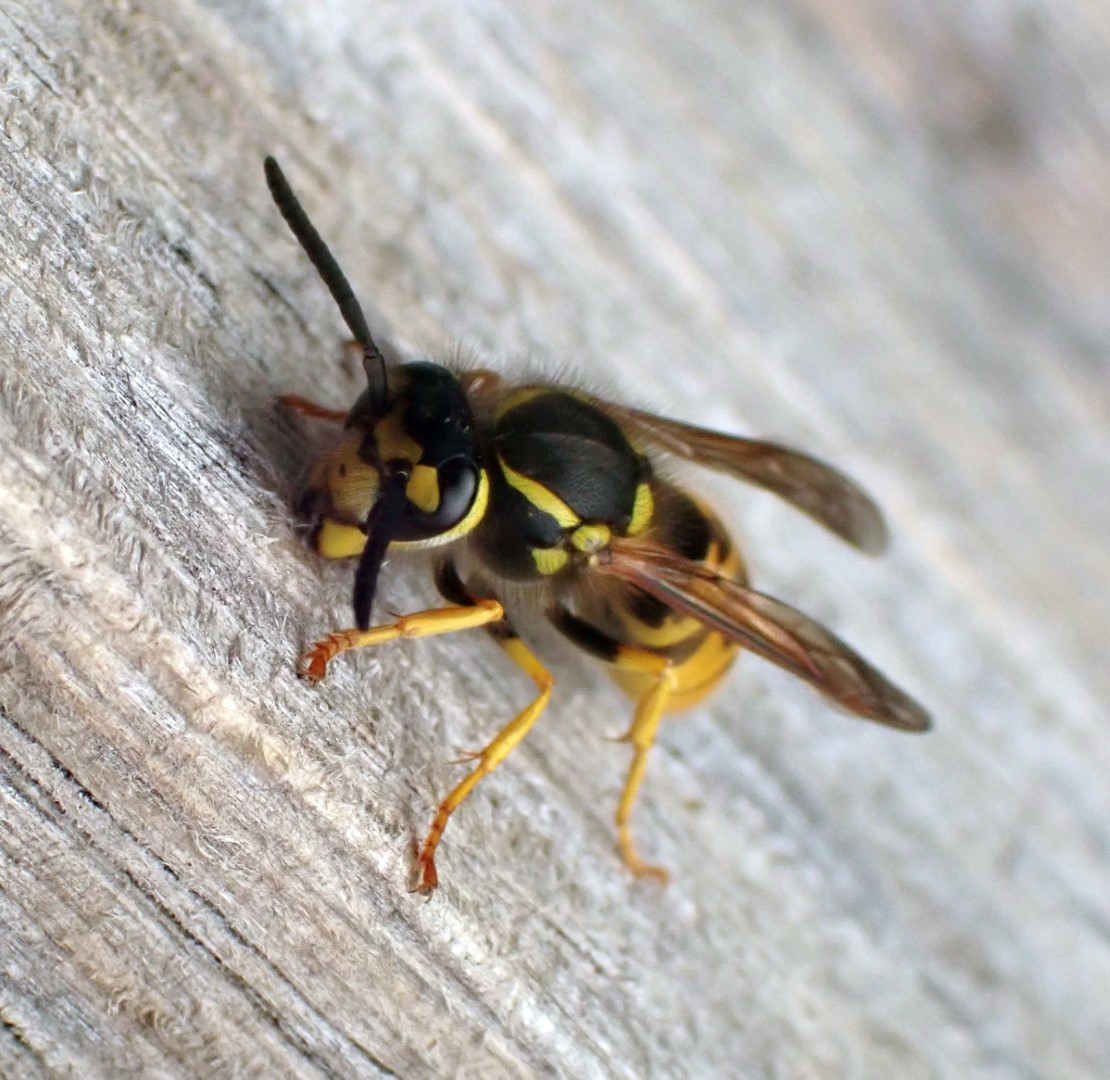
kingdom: Animalia
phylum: Arthropoda
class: Insecta
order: Hymenoptera
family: Vespidae
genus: Vespula
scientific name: Vespula germanica
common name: German wasp
